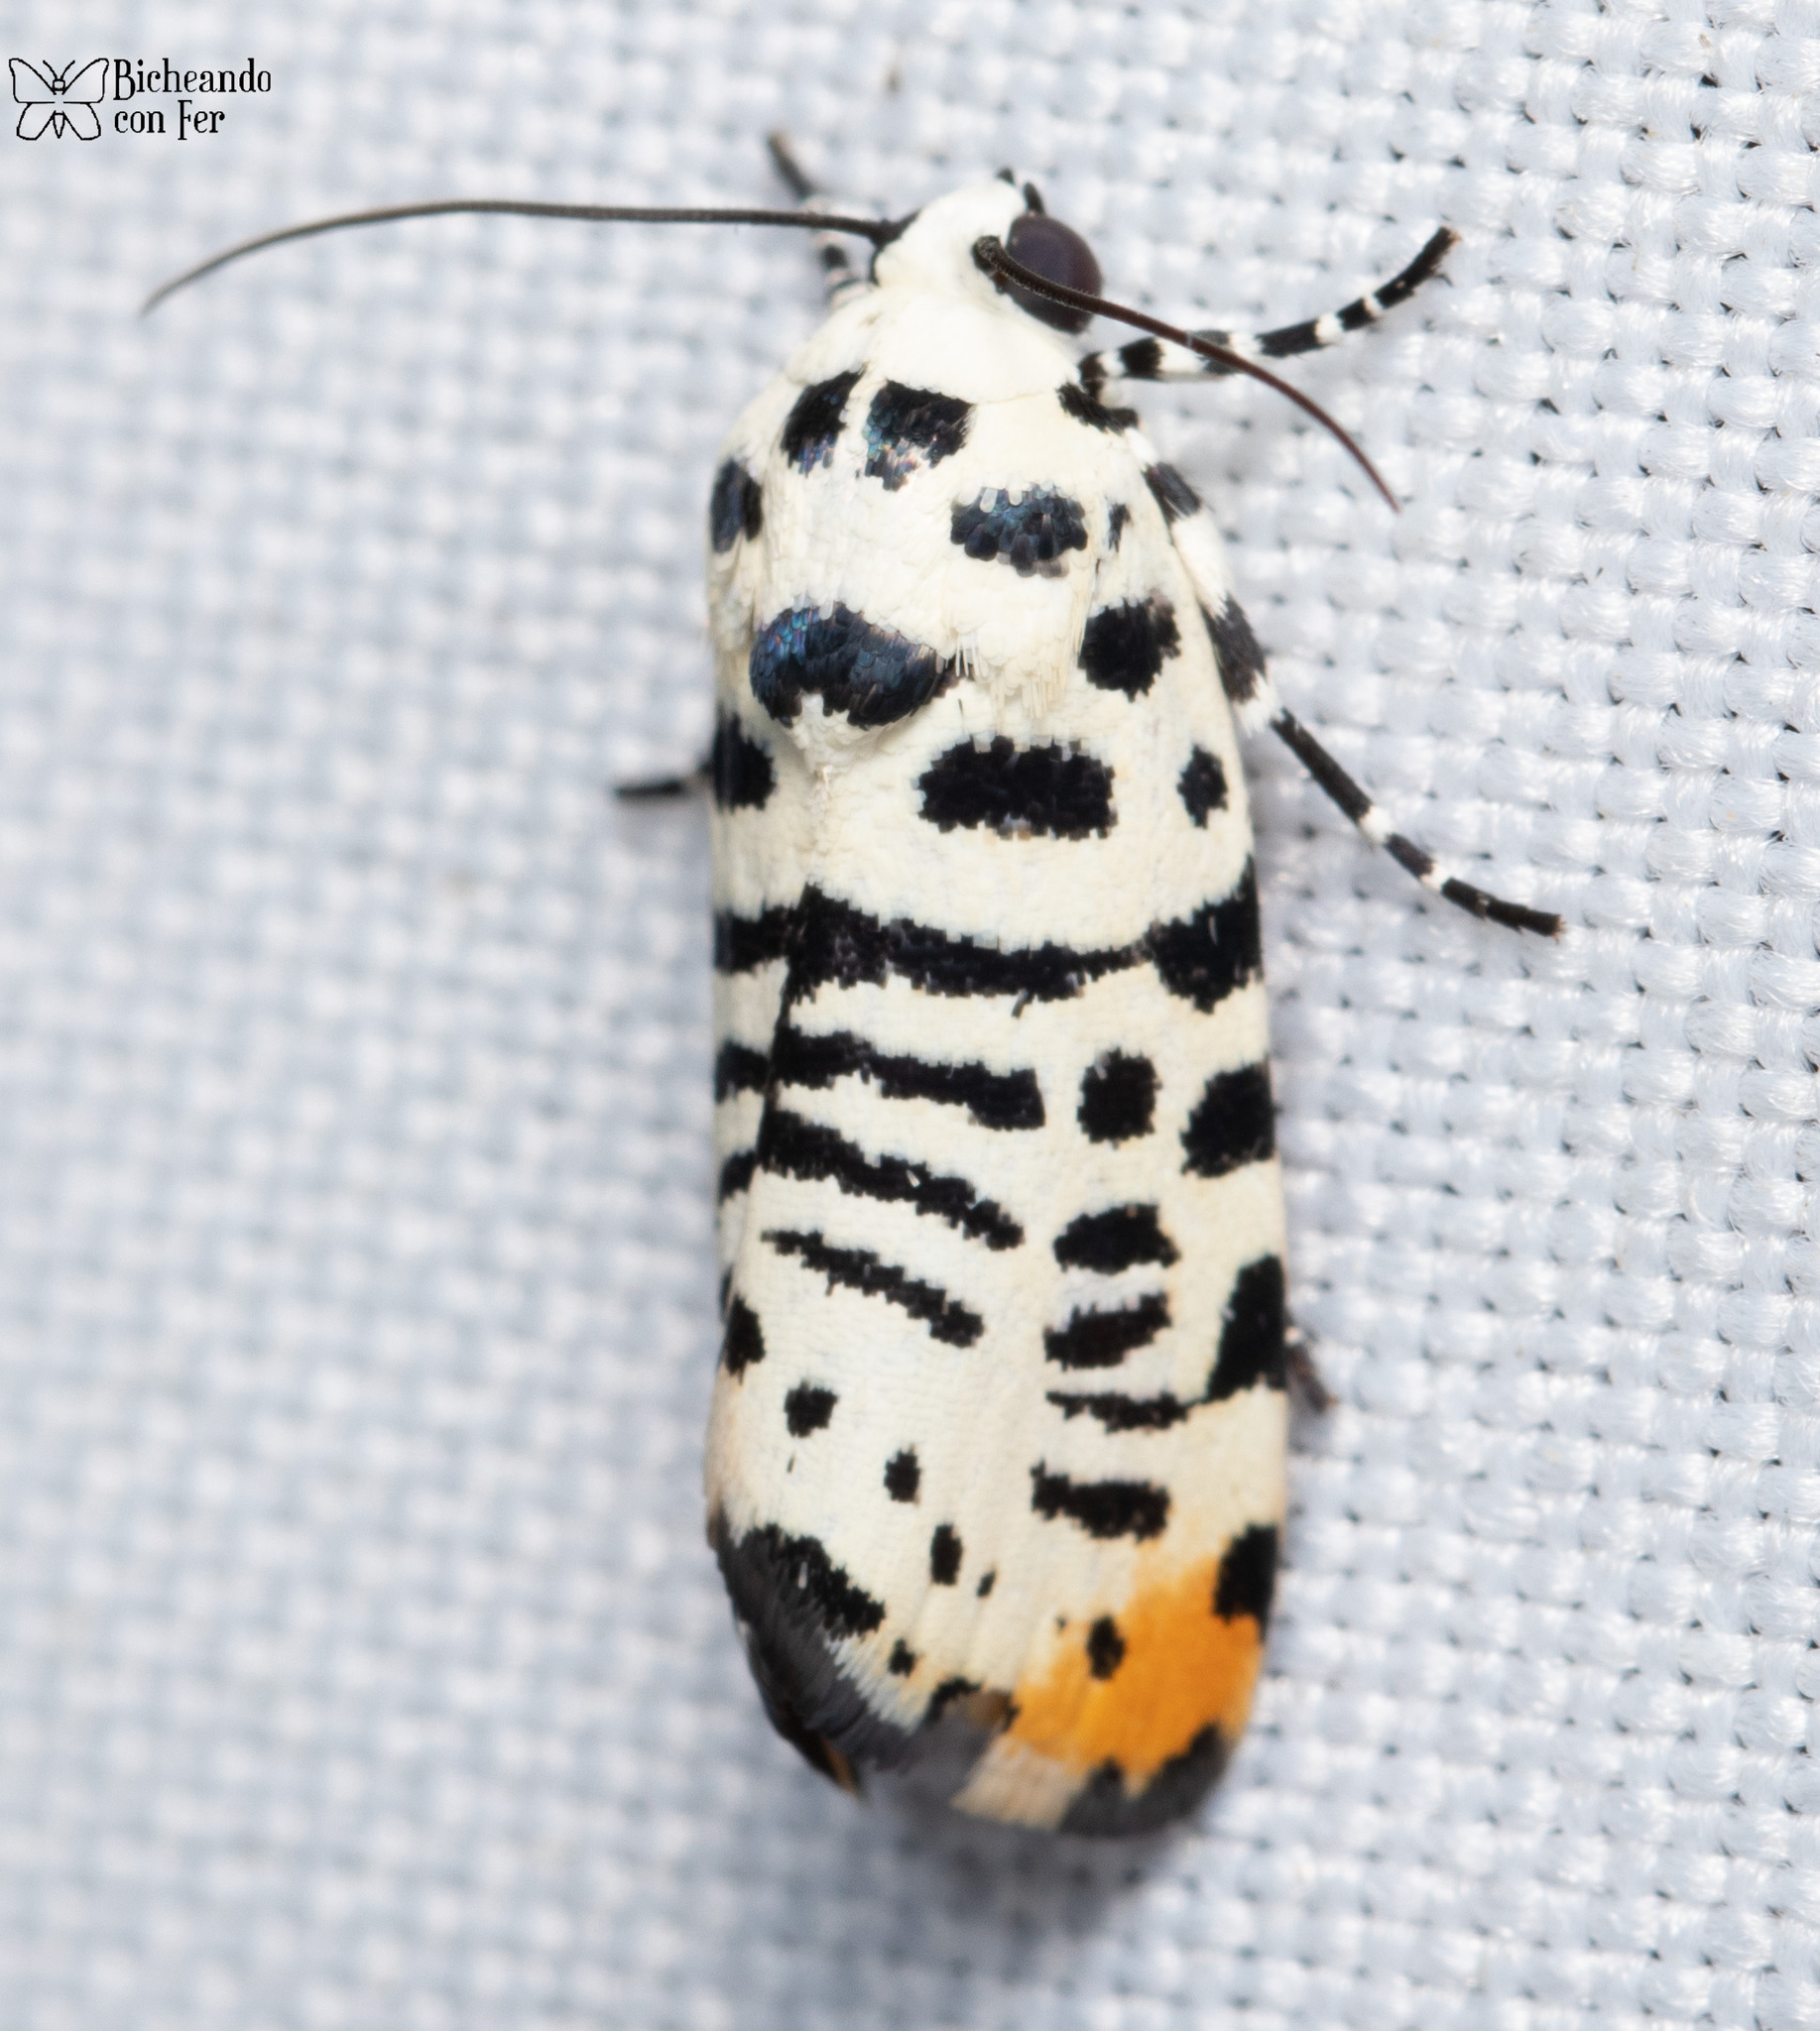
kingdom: Animalia
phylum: Arthropoda
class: Insecta
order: Lepidoptera
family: Noctuidae
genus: Acontia
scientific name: Acontia idella
